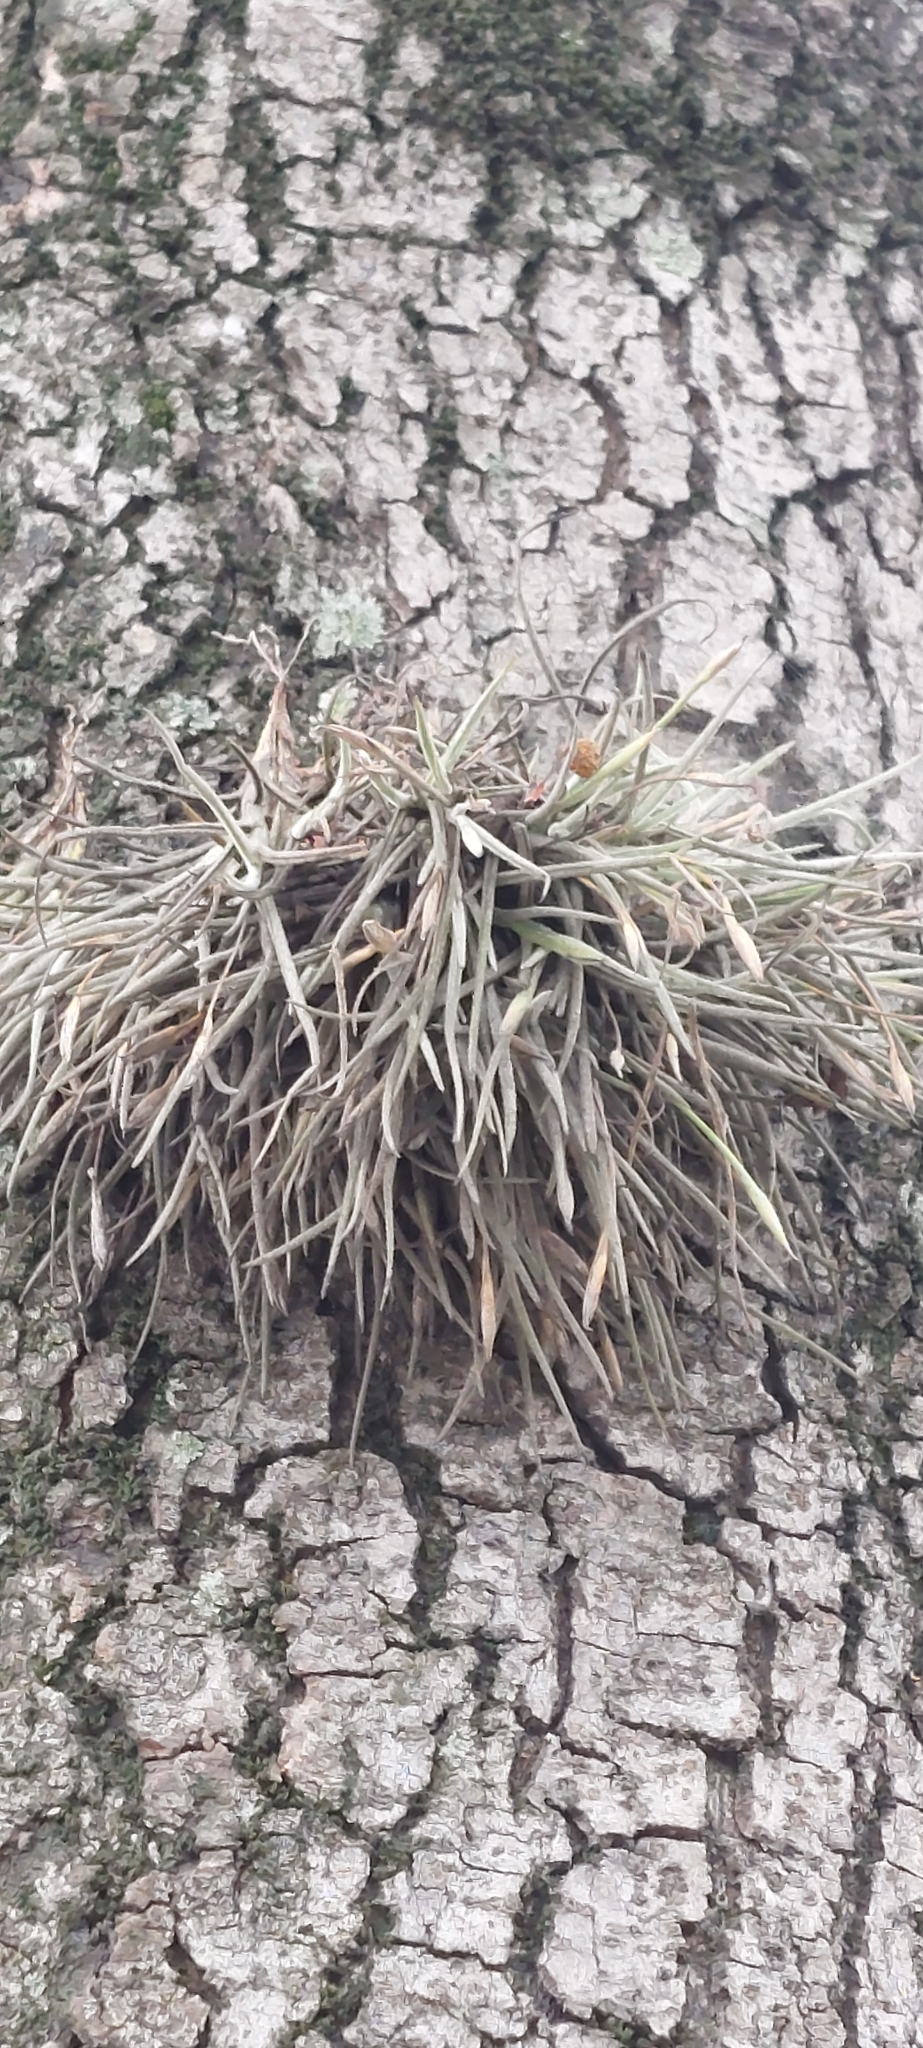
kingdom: Plantae
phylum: Tracheophyta
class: Liliopsida
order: Poales
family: Bromeliaceae
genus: Tillandsia
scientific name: Tillandsia recurvata
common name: Small ballmoss
